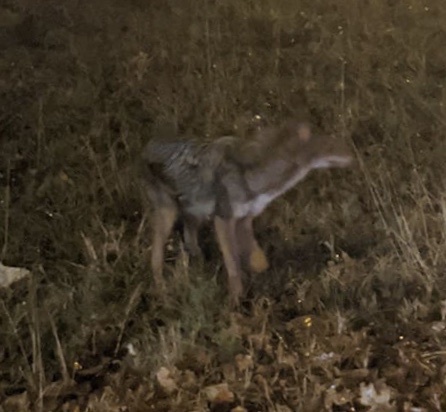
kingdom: Animalia
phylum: Chordata
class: Mammalia
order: Carnivora
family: Canidae
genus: Canis
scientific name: Canis latrans
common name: Coyote
